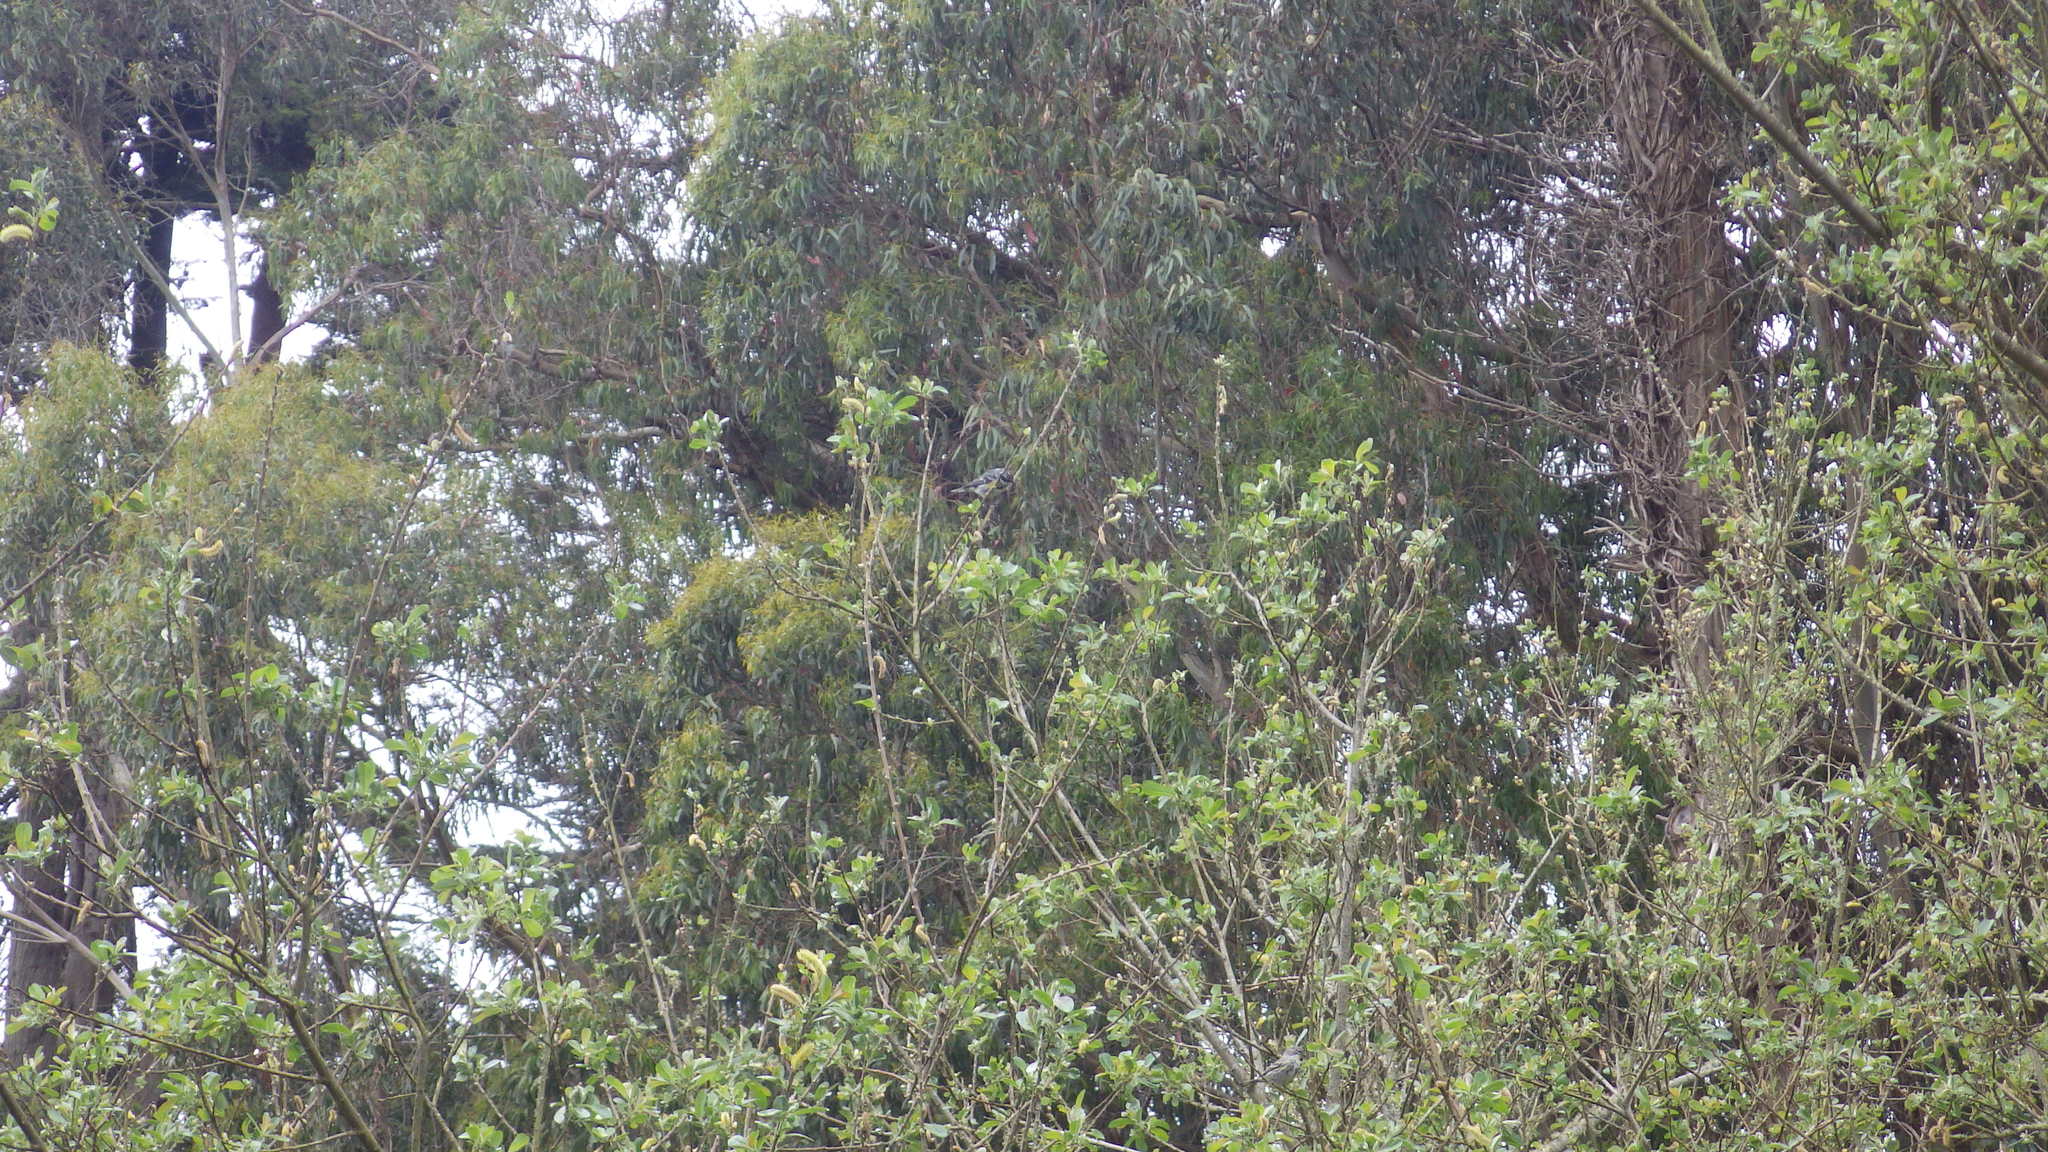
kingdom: Animalia
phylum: Chordata
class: Aves
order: Passeriformes
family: Parulidae
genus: Setophaga
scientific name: Setophaga coronata
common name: Myrtle warbler
